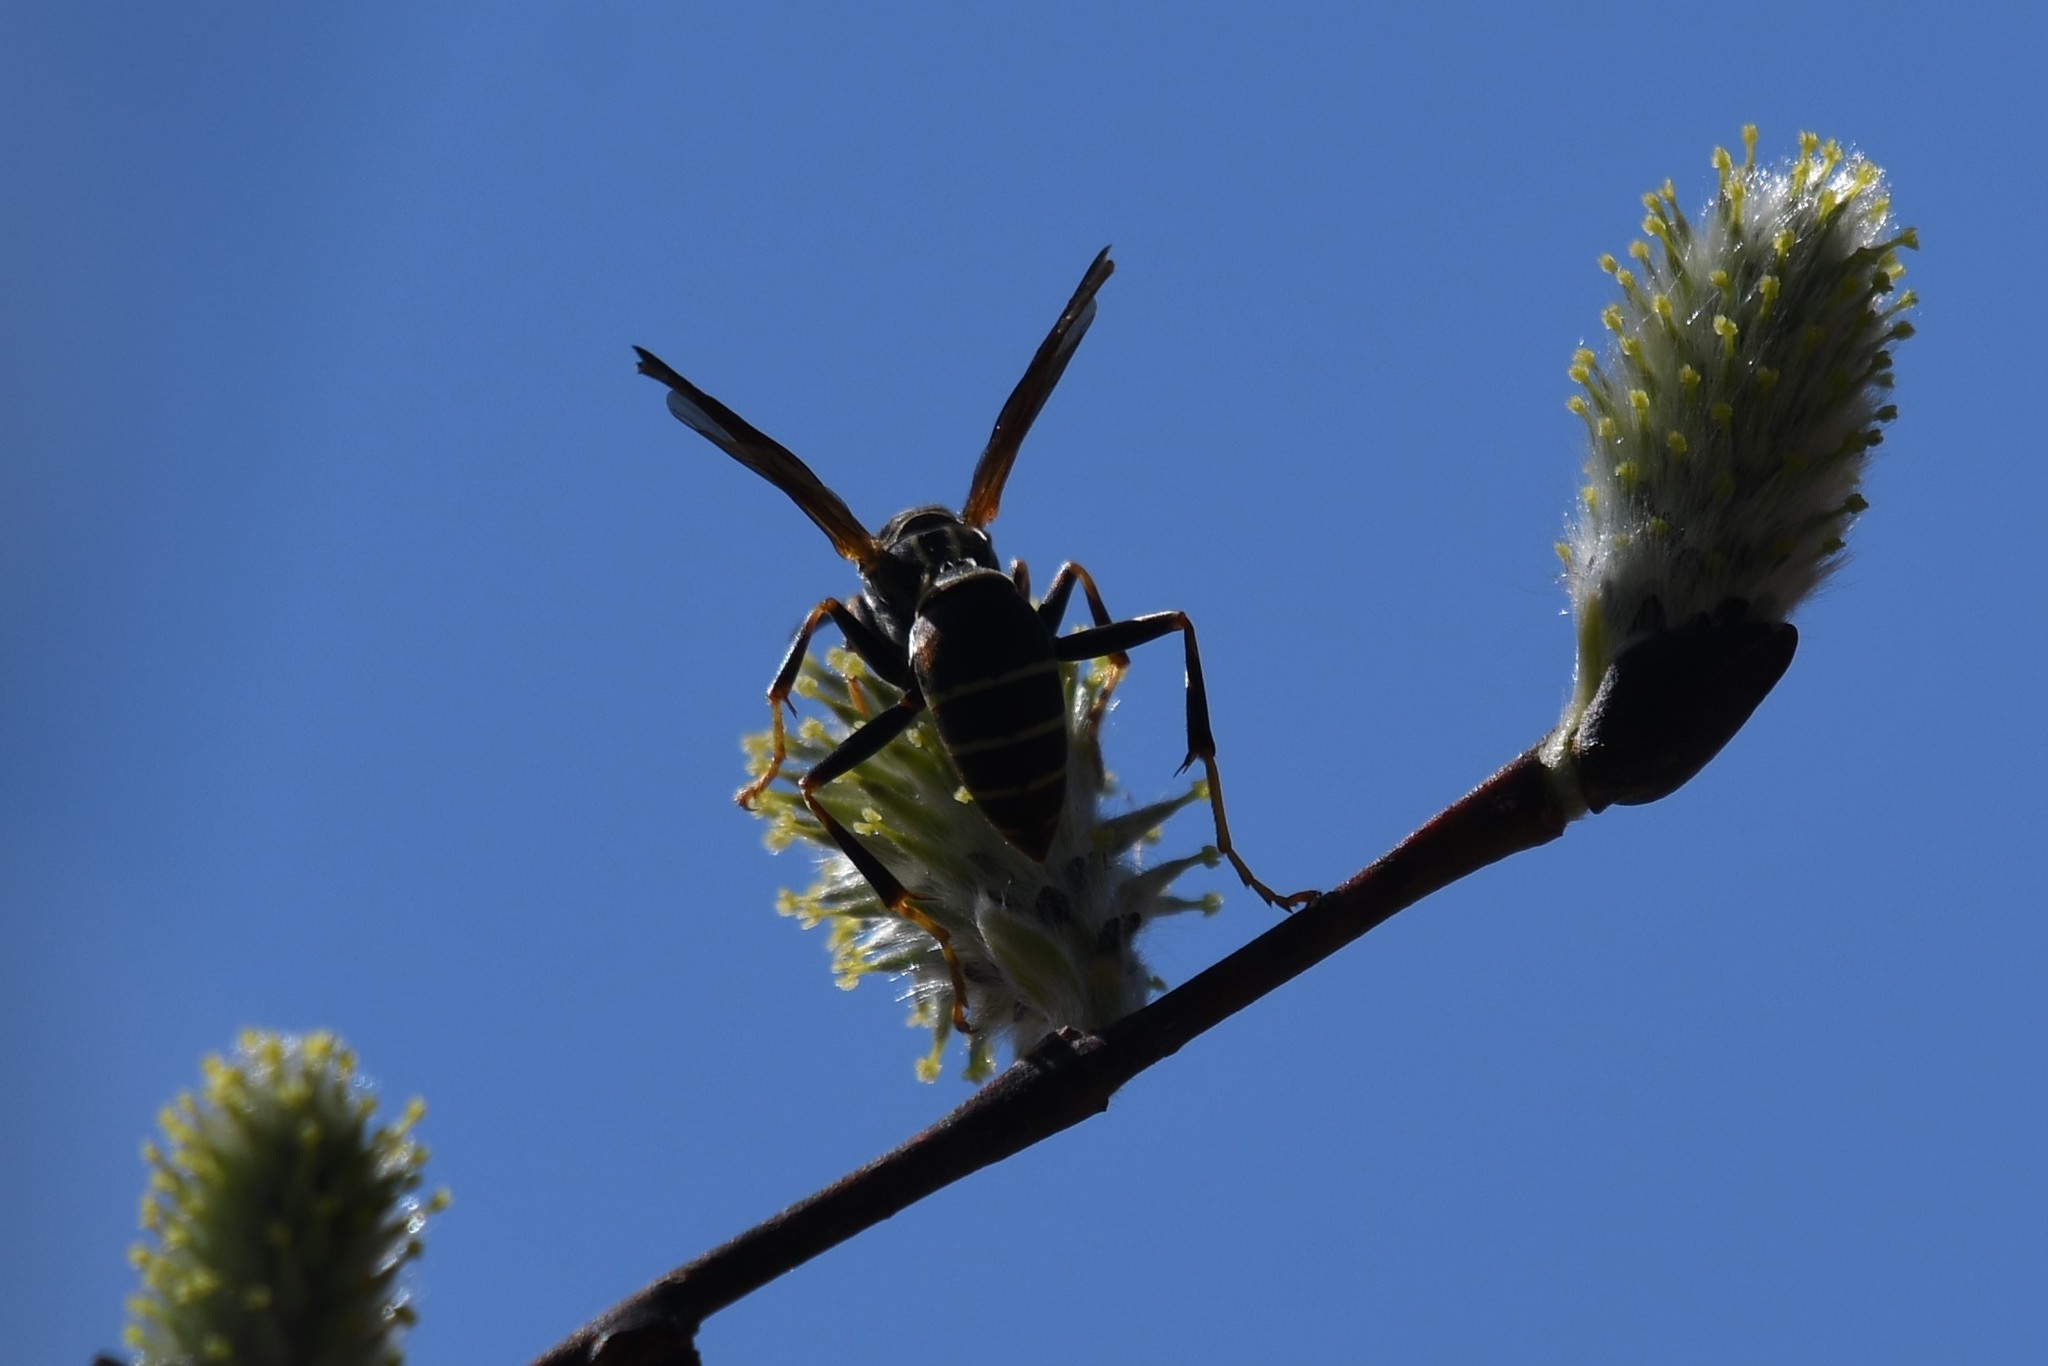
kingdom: Animalia
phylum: Arthropoda
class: Insecta
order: Hymenoptera
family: Eumenidae
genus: Polistes
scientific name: Polistes fuscatus
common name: Dark paper wasp
